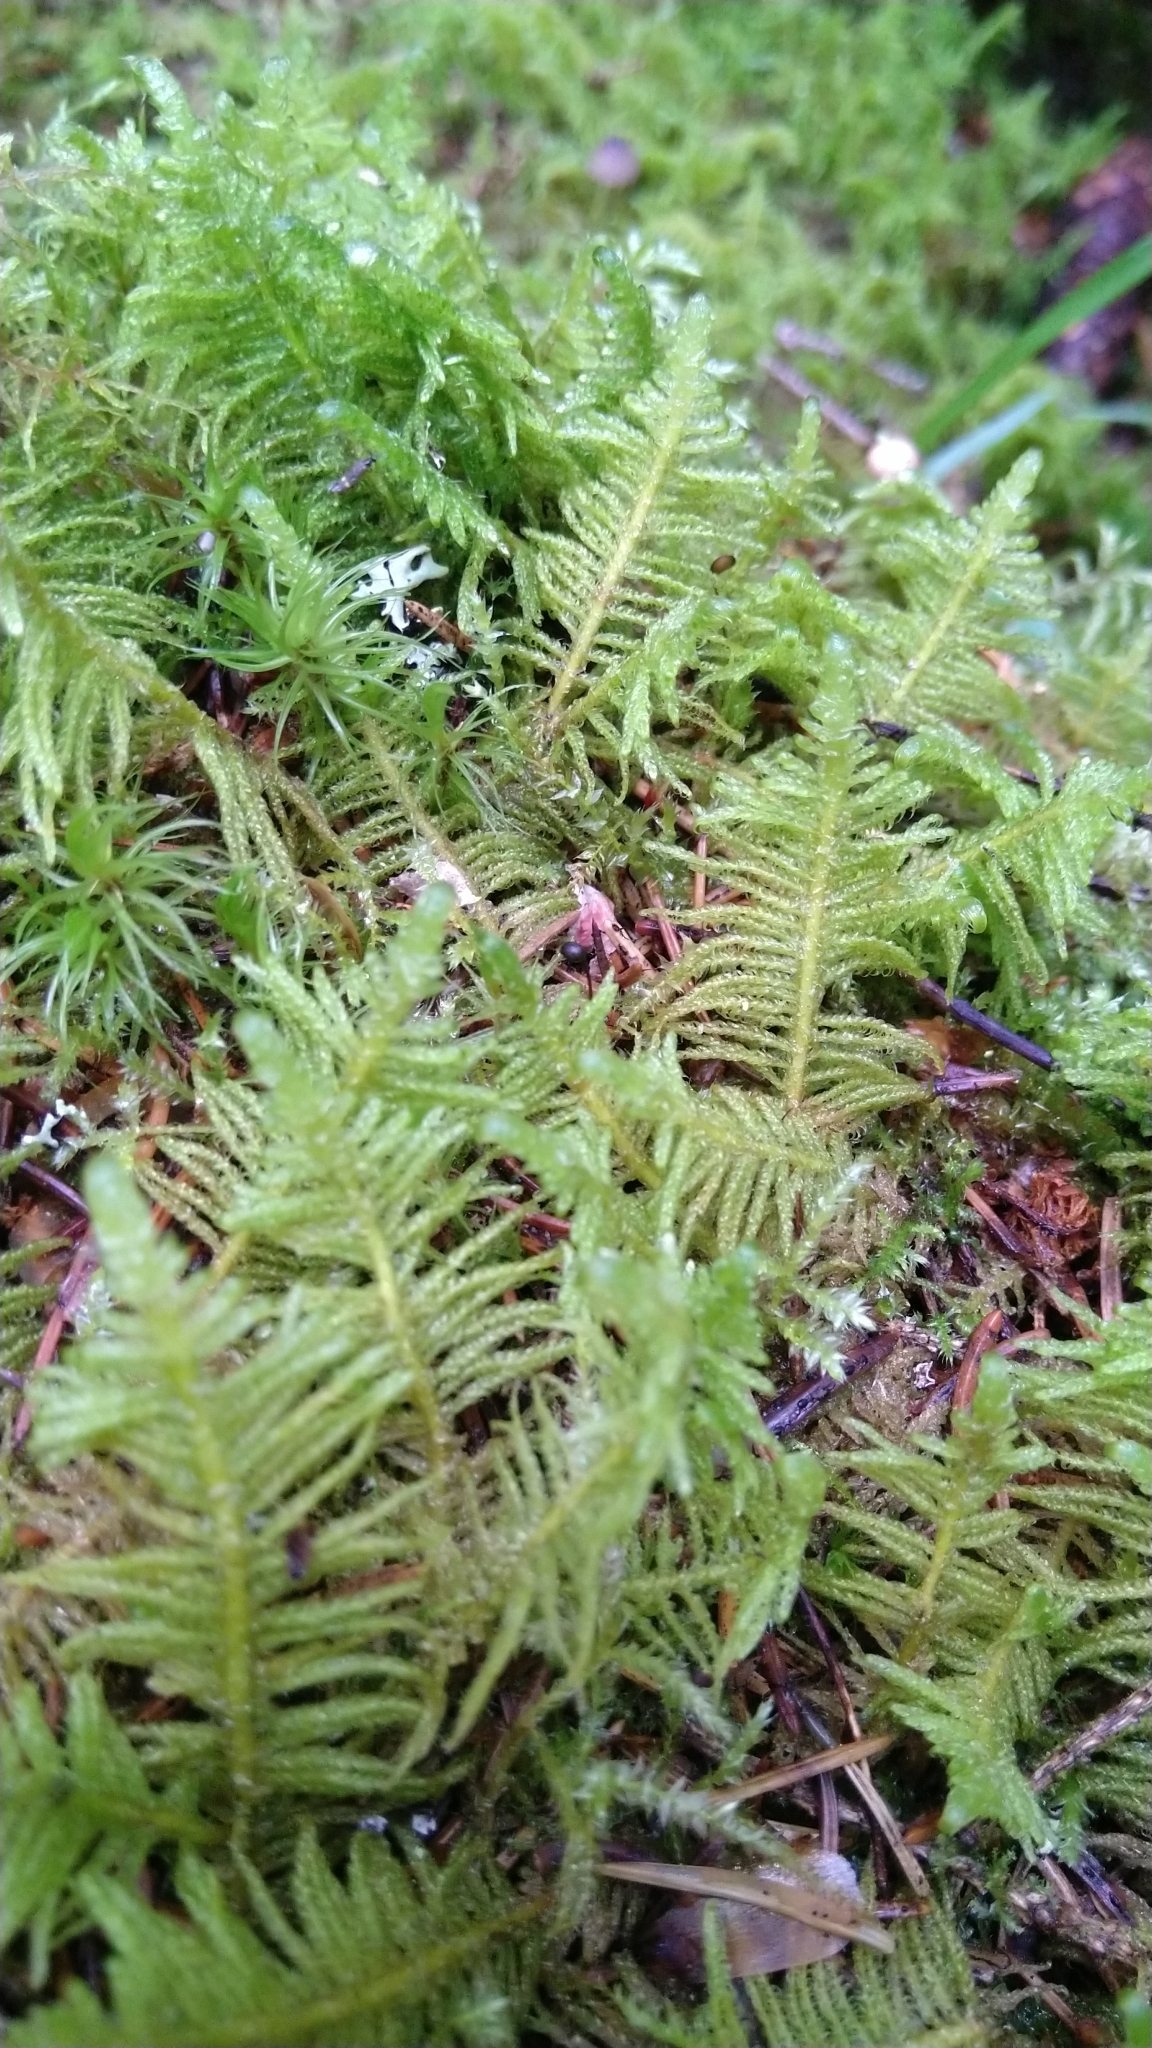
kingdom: Plantae
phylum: Bryophyta
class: Bryopsida
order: Hypnales
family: Pylaisiaceae
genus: Ptilium
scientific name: Ptilium crista-castrensis
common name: Knight's plume moss
